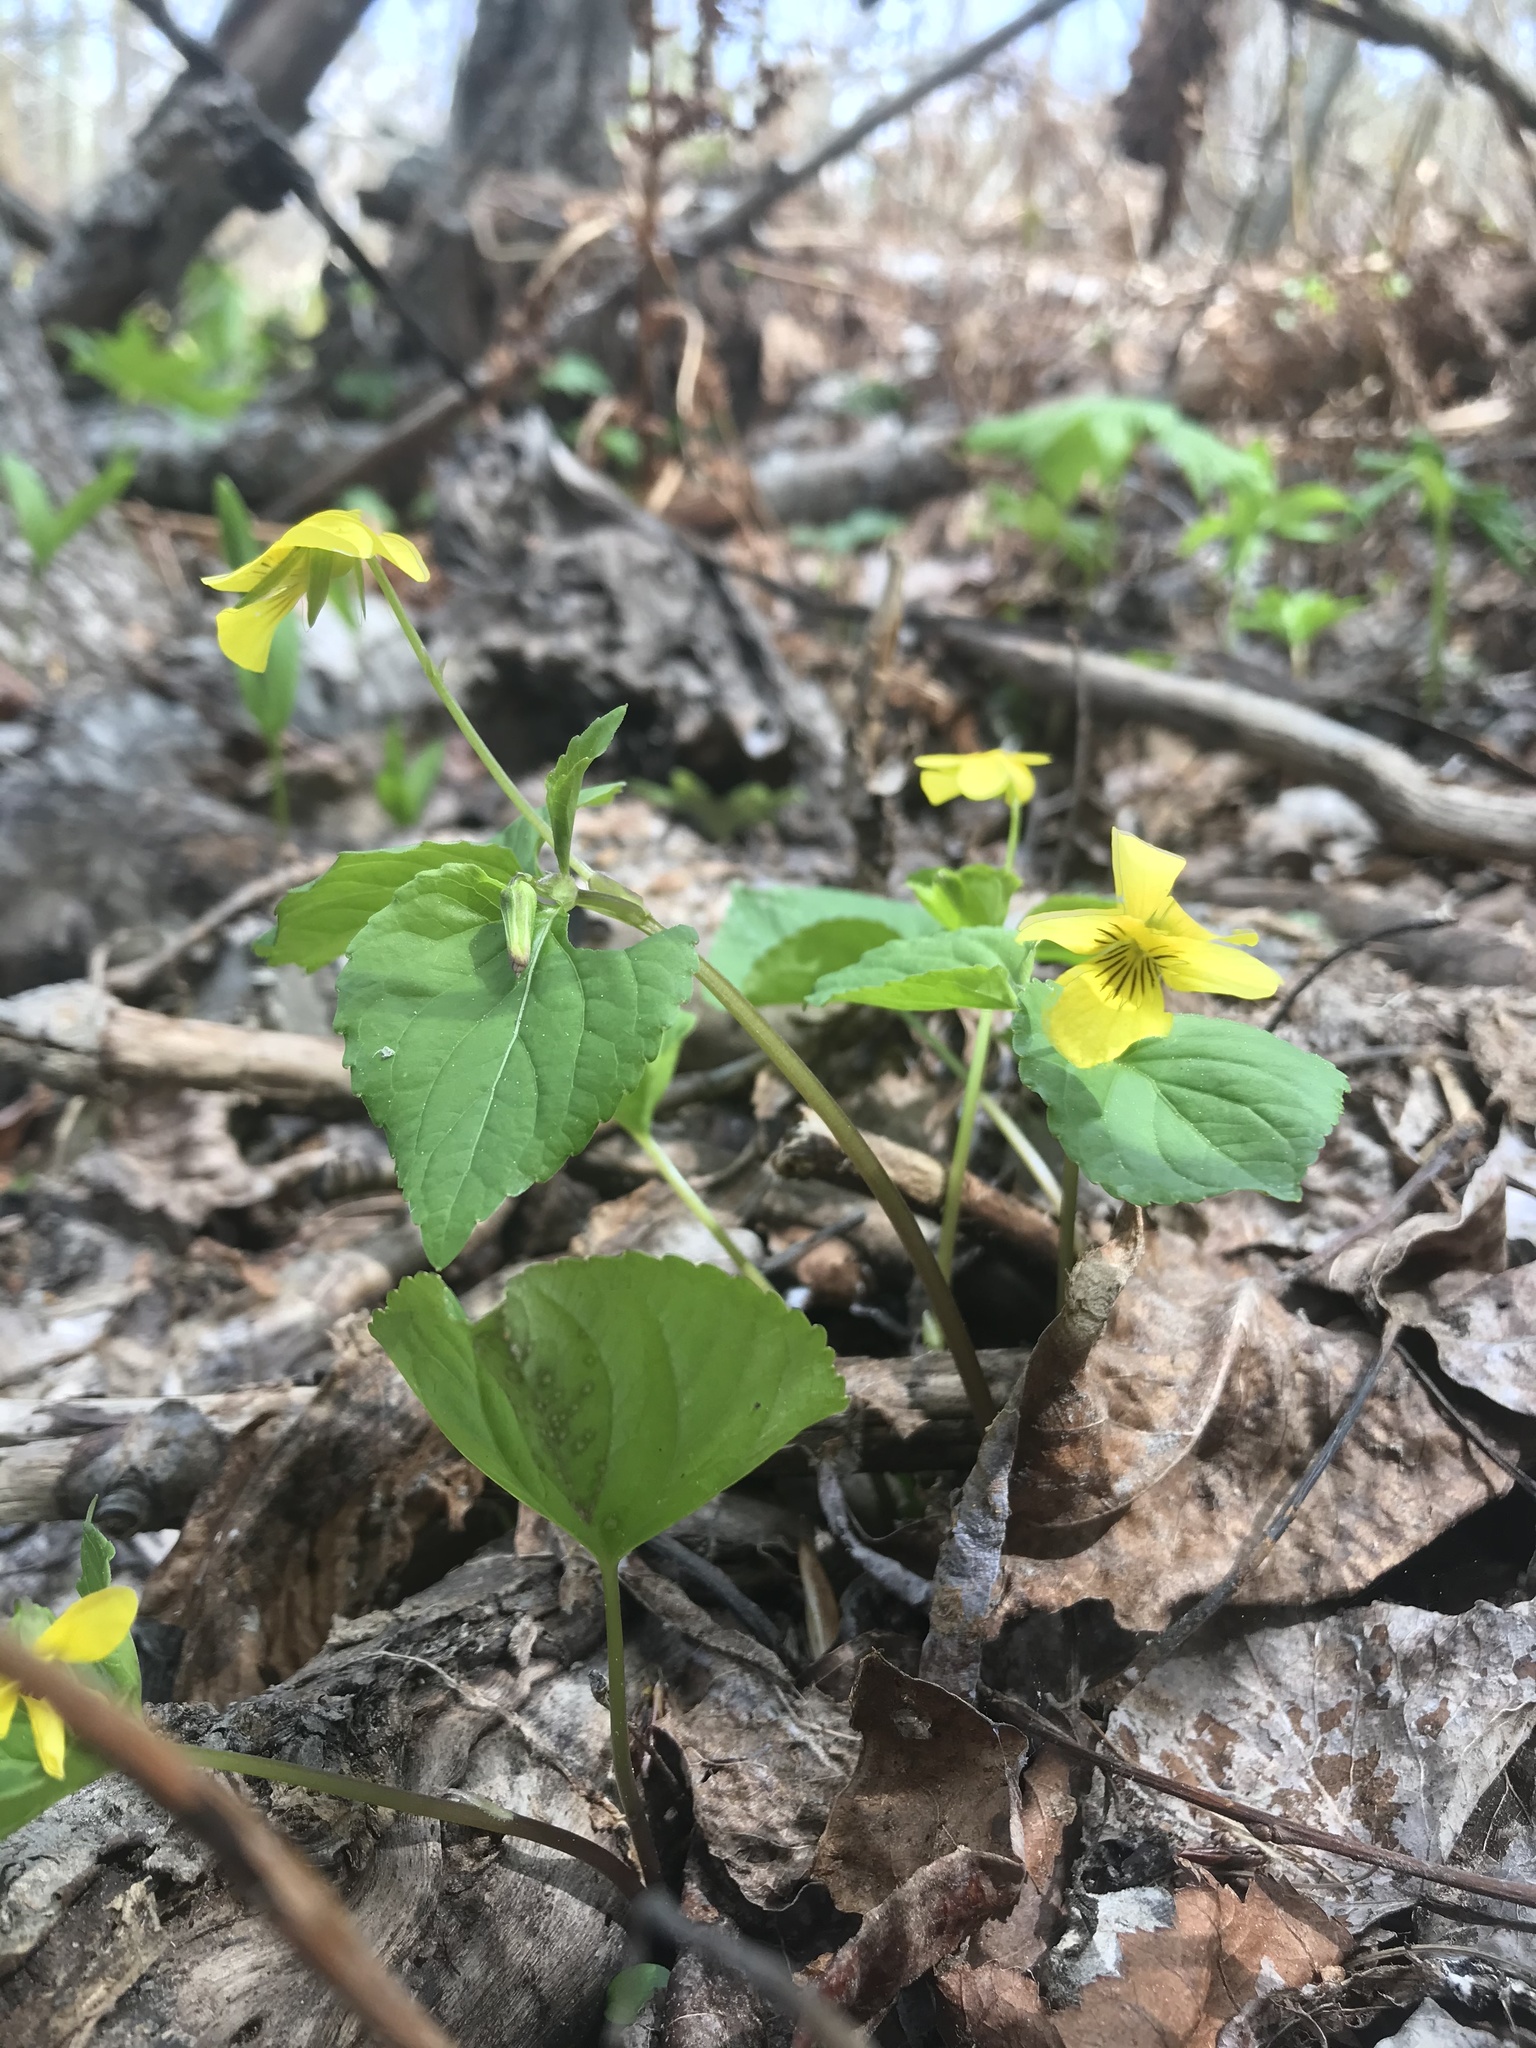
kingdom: Plantae
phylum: Tracheophyta
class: Magnoliopsida
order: Malpighiales
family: Violaceae
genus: Viola
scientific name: Viola glabella
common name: Stream violet
